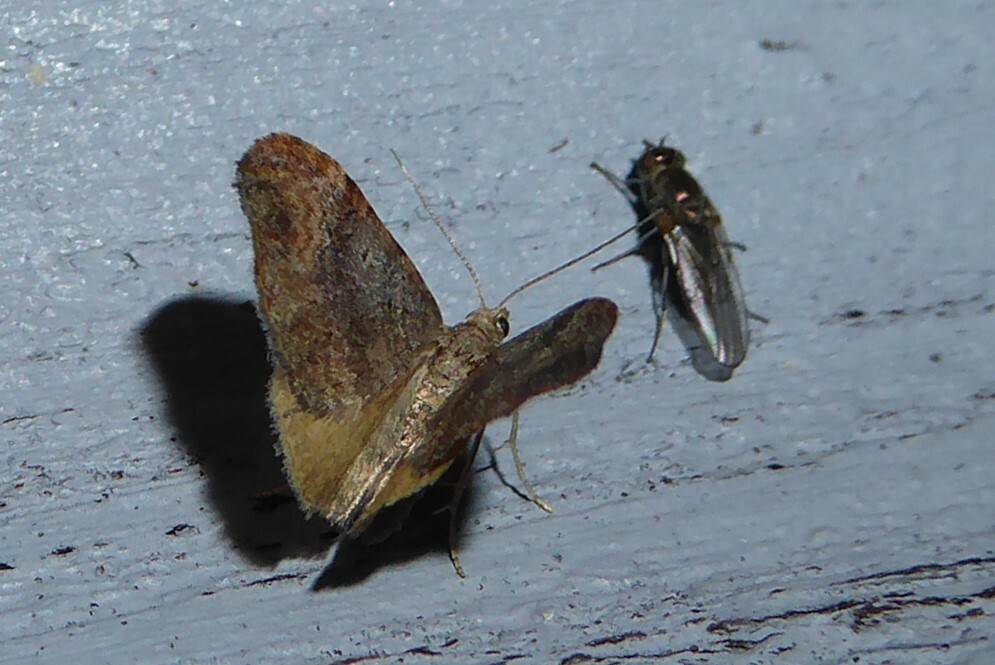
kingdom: Animalia
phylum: Arthropoda
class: Insecta
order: Lepidoptera
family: Geometridae
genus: Homodotis
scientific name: Homodotis megaspilata
